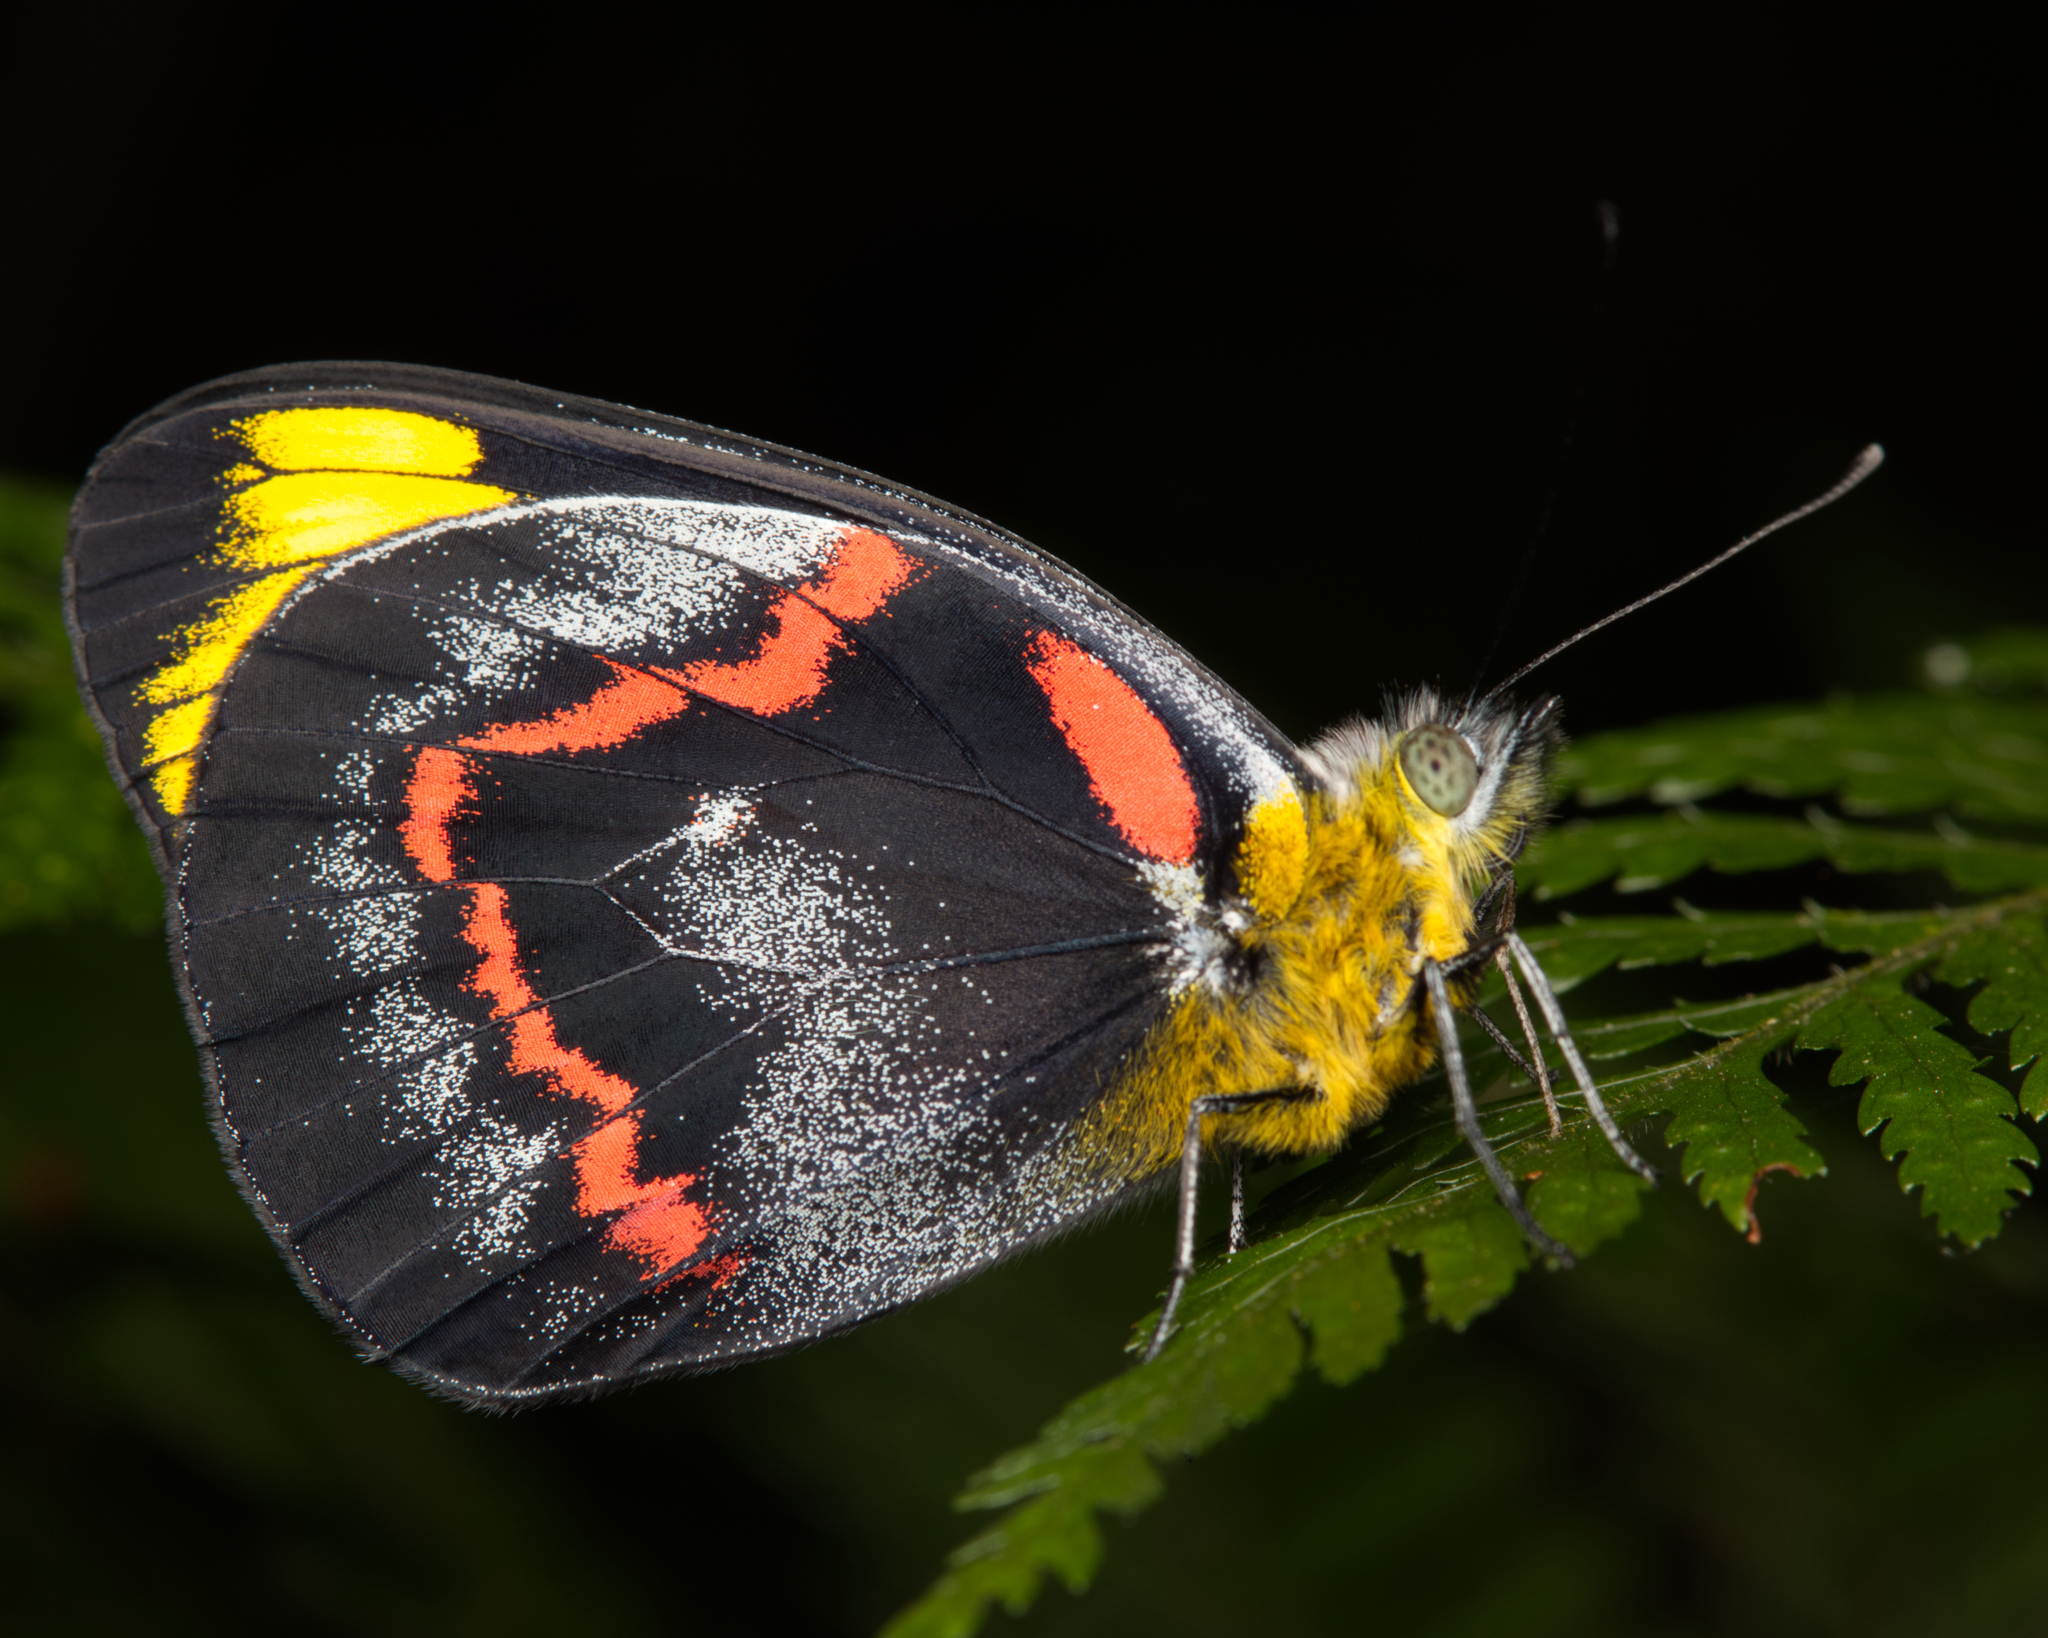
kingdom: Animalia
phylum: Arthropoda
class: Insecta
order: Lepidoptera
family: Pieridae
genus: Delias
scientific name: Delias nigrina
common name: Black jezebel
